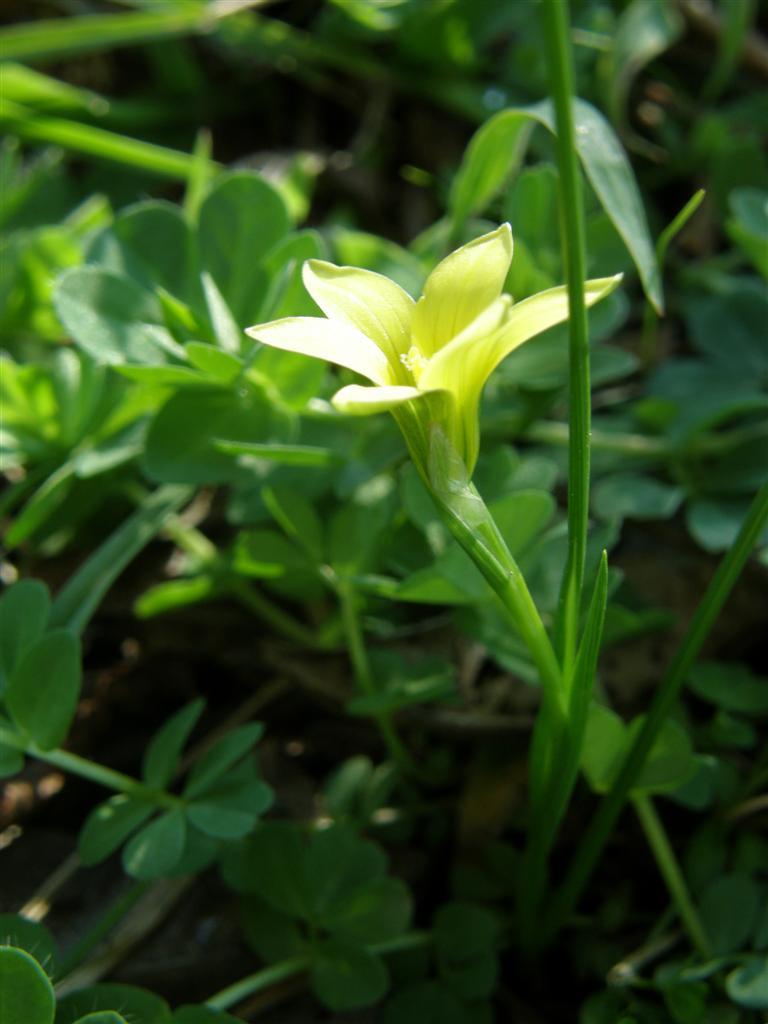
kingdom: Plantae
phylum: Tracheophyta
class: Liliopsida
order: Asparagales
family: Iridaceae
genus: Romulea
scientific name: Romulea flava
